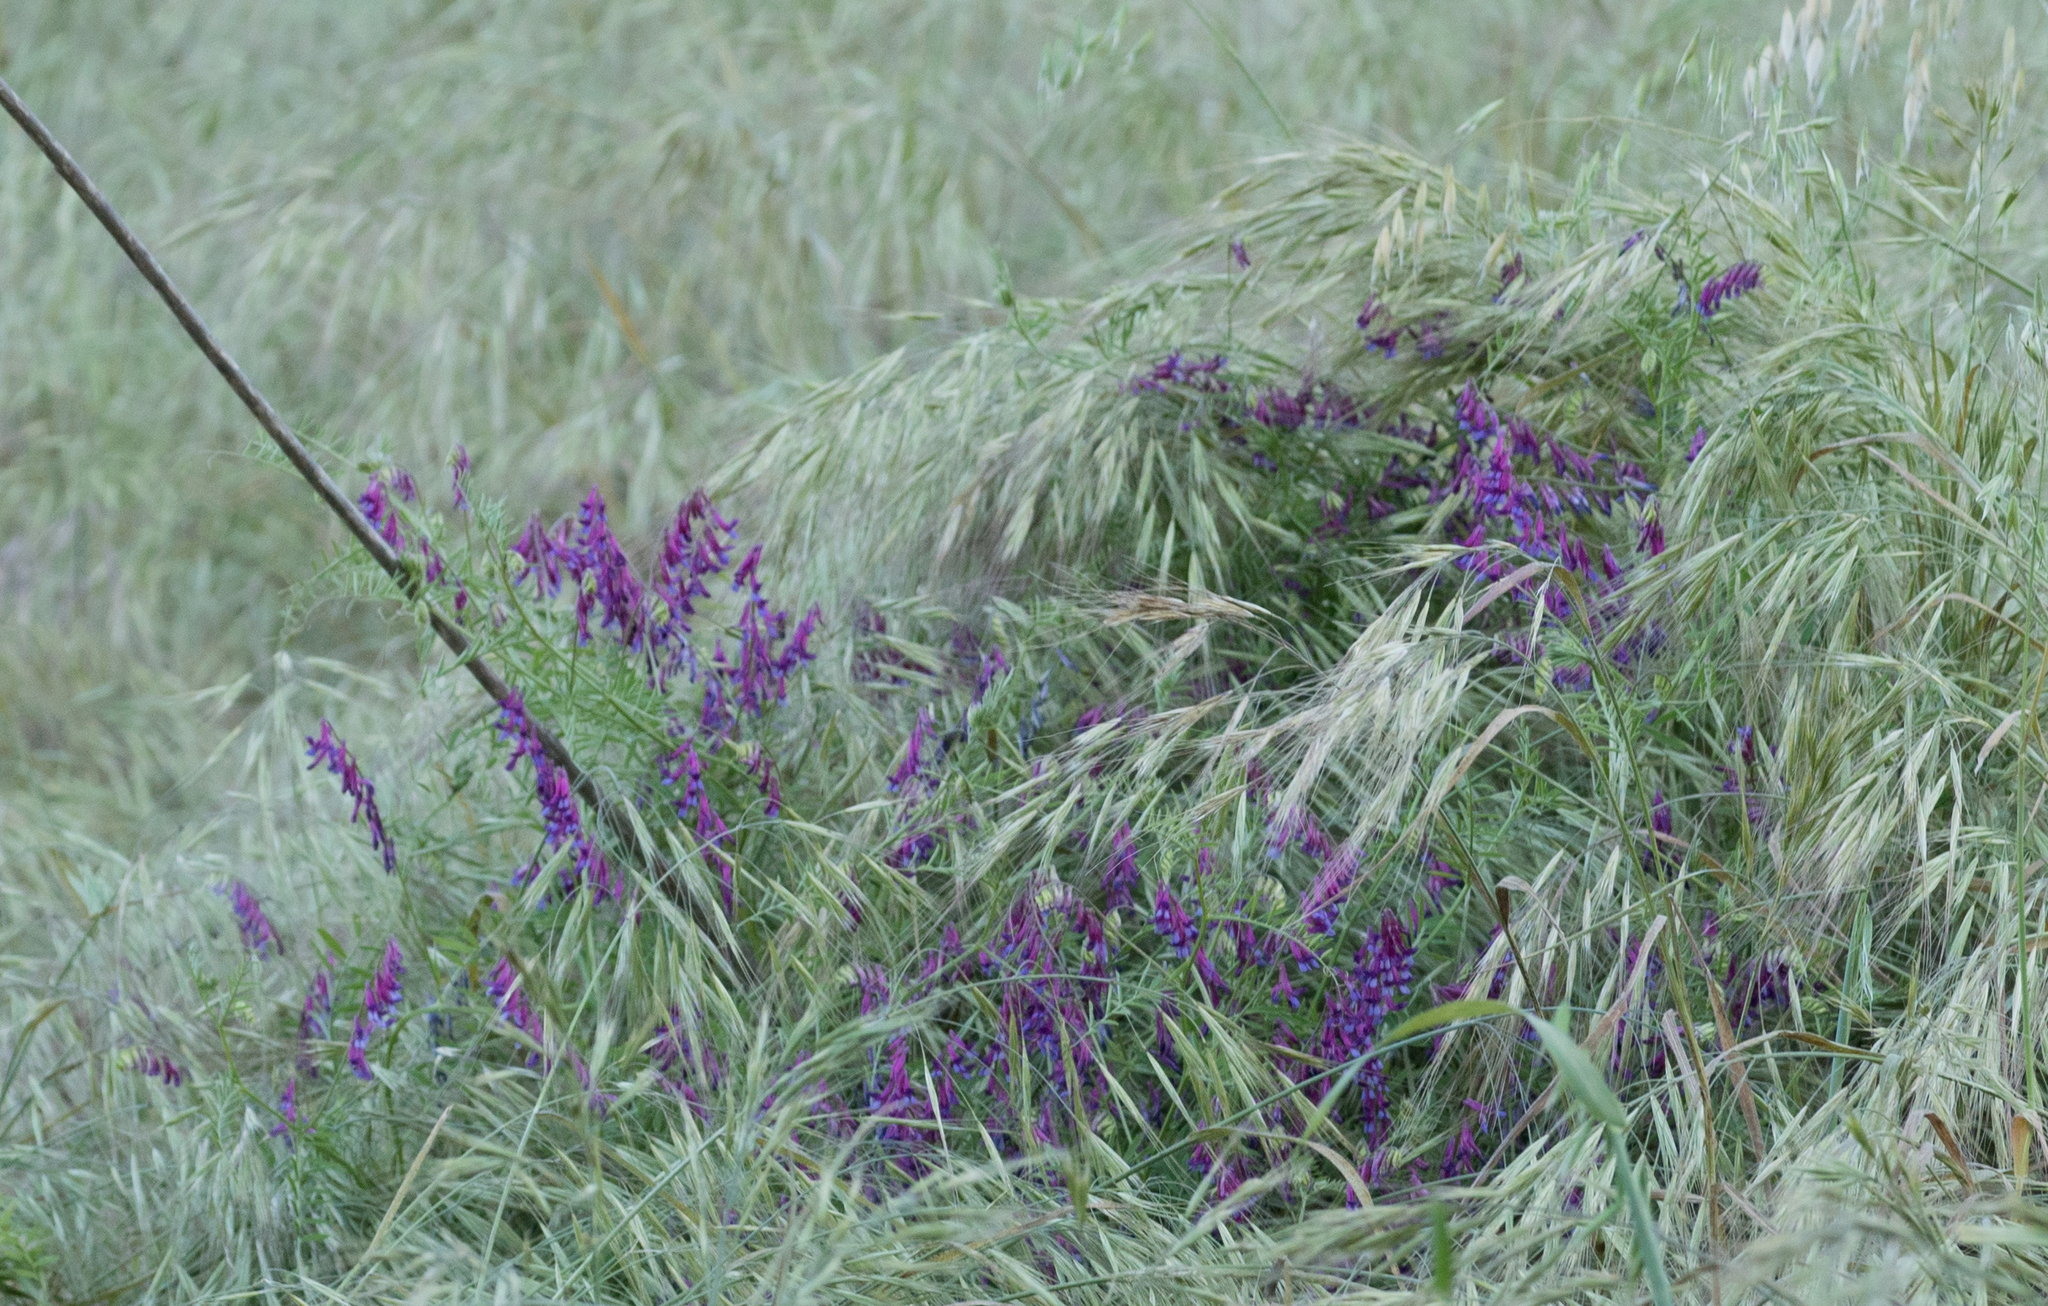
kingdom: Plantae
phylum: Tracheophyta
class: Magnoliopsida
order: Fabales
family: Fabaceae
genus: Vicia
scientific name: Vicia villosa
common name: Fodder vetch
